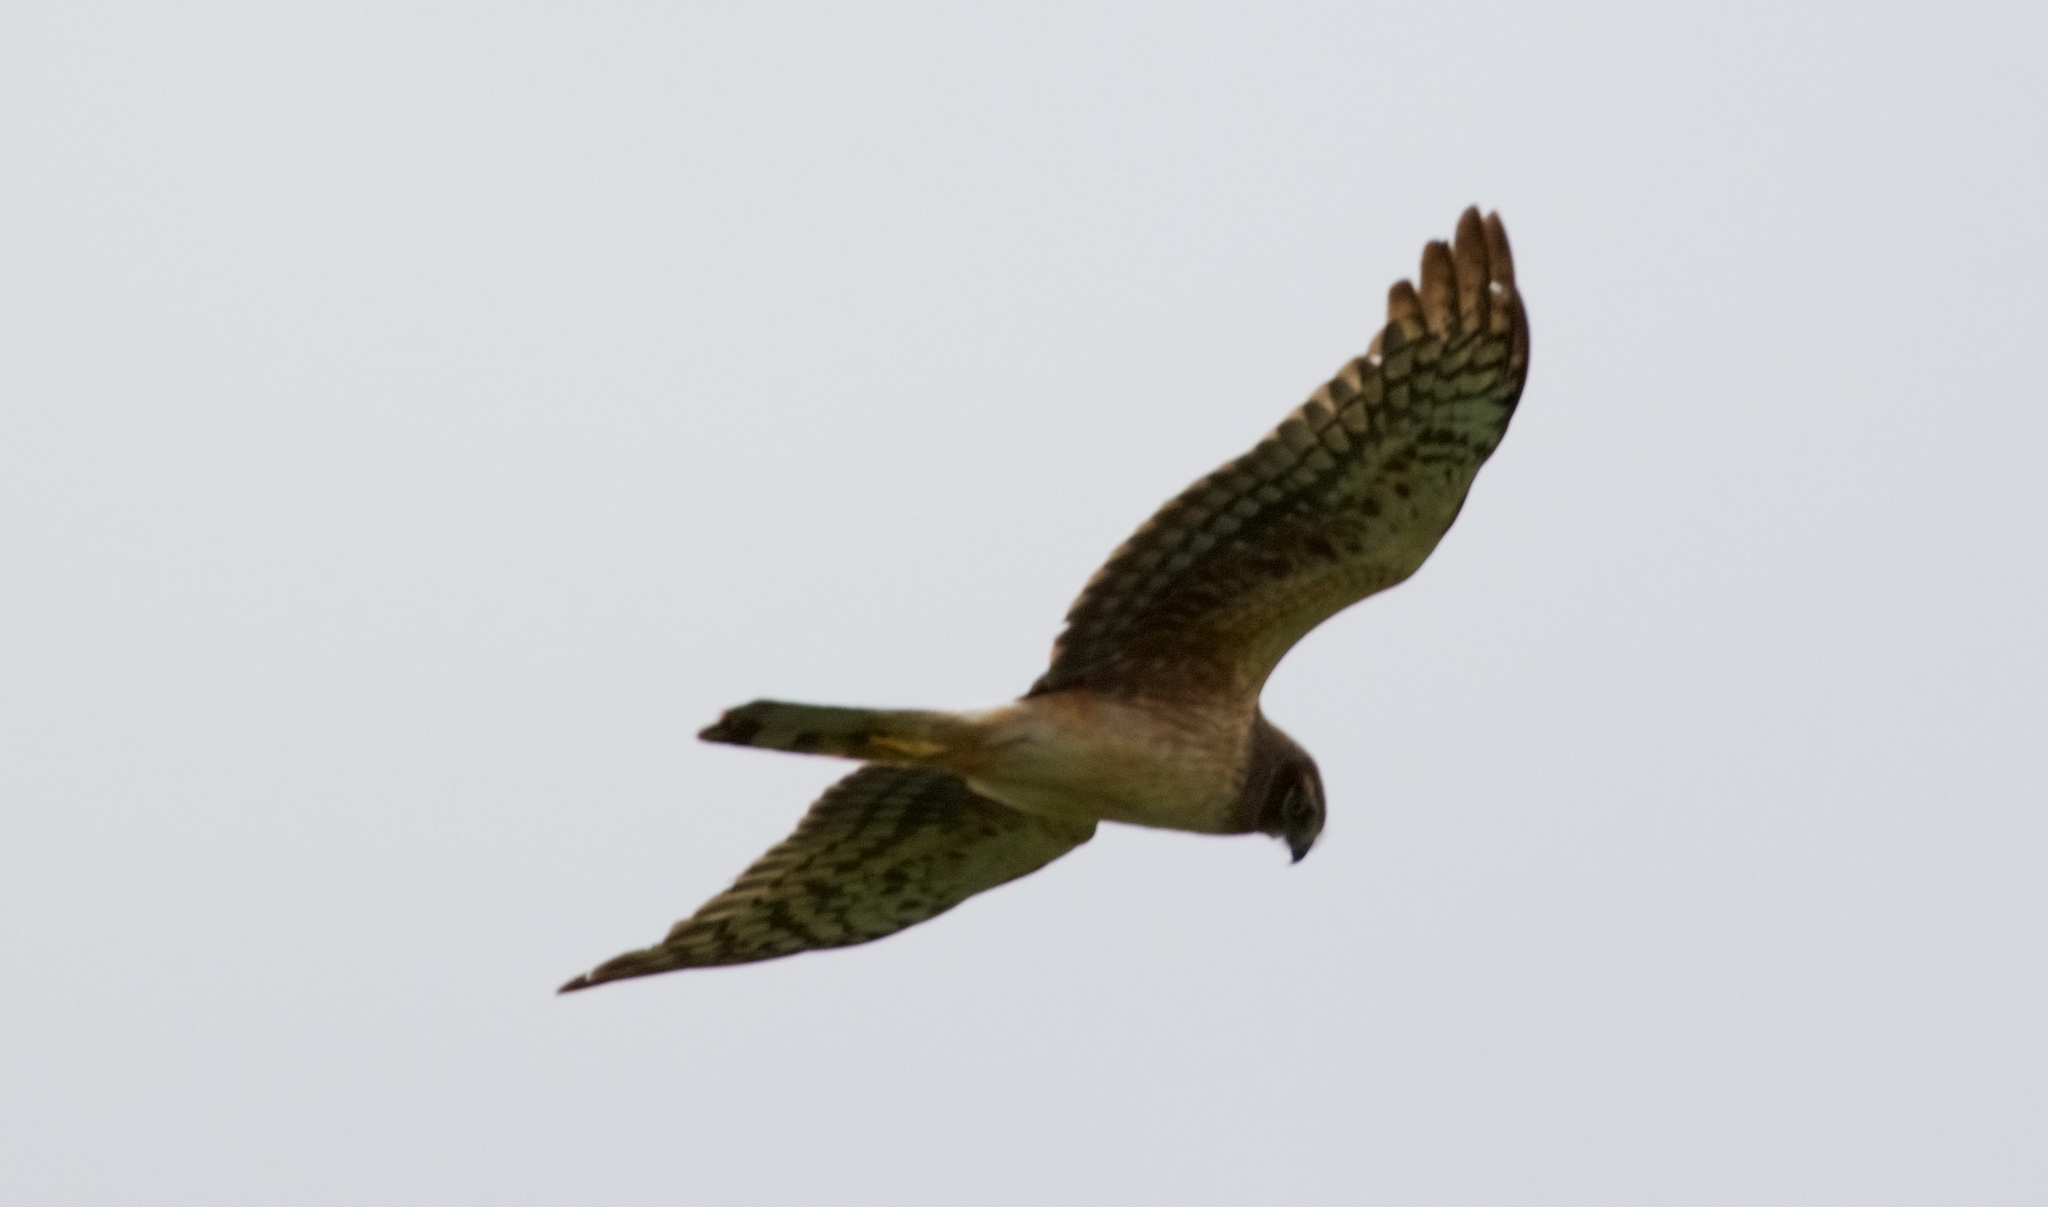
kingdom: Animalia
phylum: Chordata
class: Aves
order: Accipitriformes
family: Accipitridae
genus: Circus
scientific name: Circus cyaneus
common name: Hen harrier
